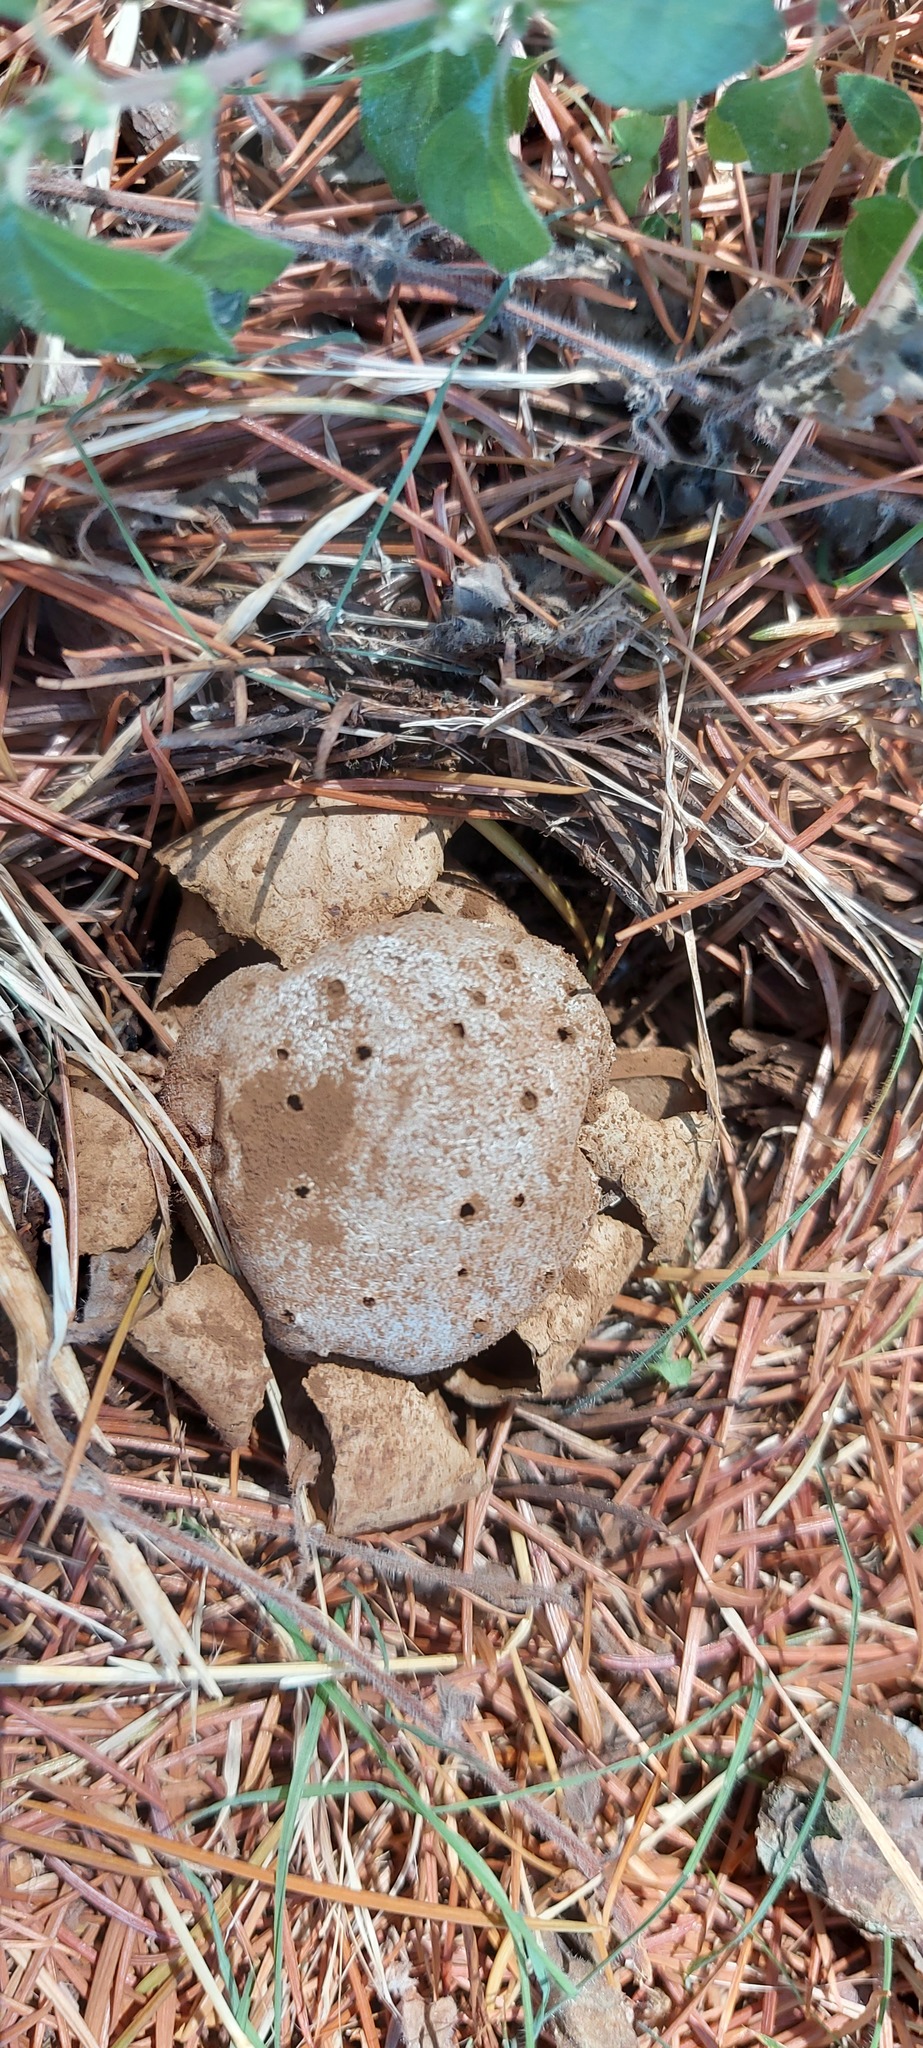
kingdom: Fungi
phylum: Basidiomycota
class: Agaricomycetes
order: Geastrales
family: Geastraceae
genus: Myriostoma
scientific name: Myriostoma coliforme
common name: Pepper pot
